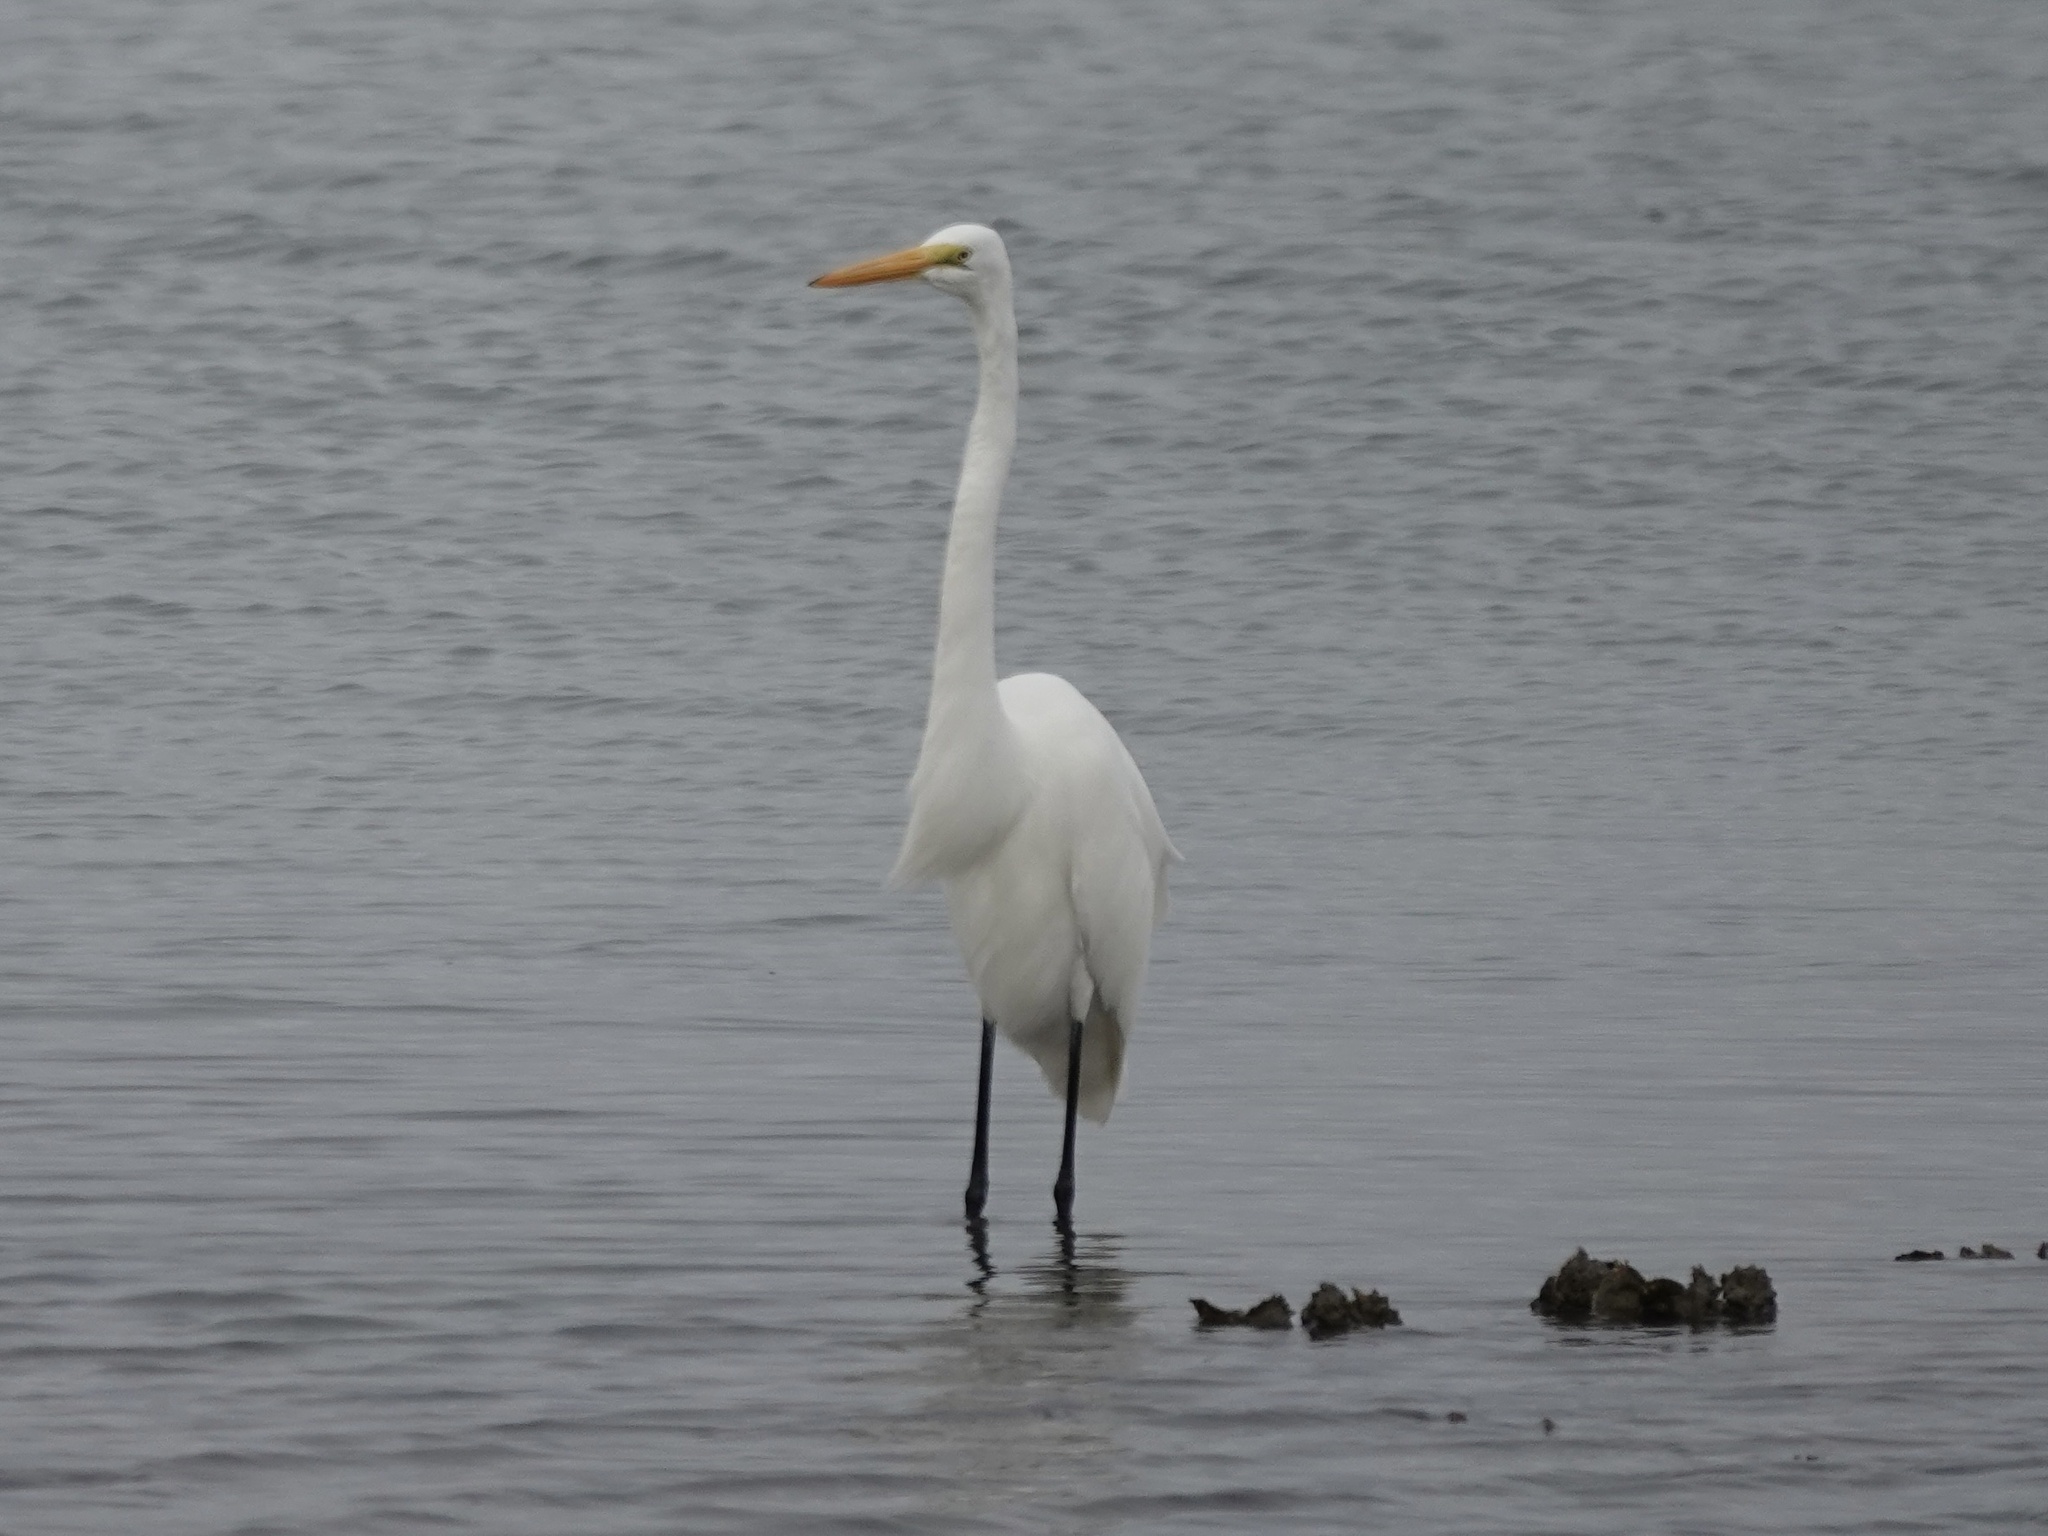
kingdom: Animalia
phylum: Chordata
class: Aves
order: Pelecaniformes
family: Ardeidae
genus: Ardea
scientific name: Ardea alba
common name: Great egret
